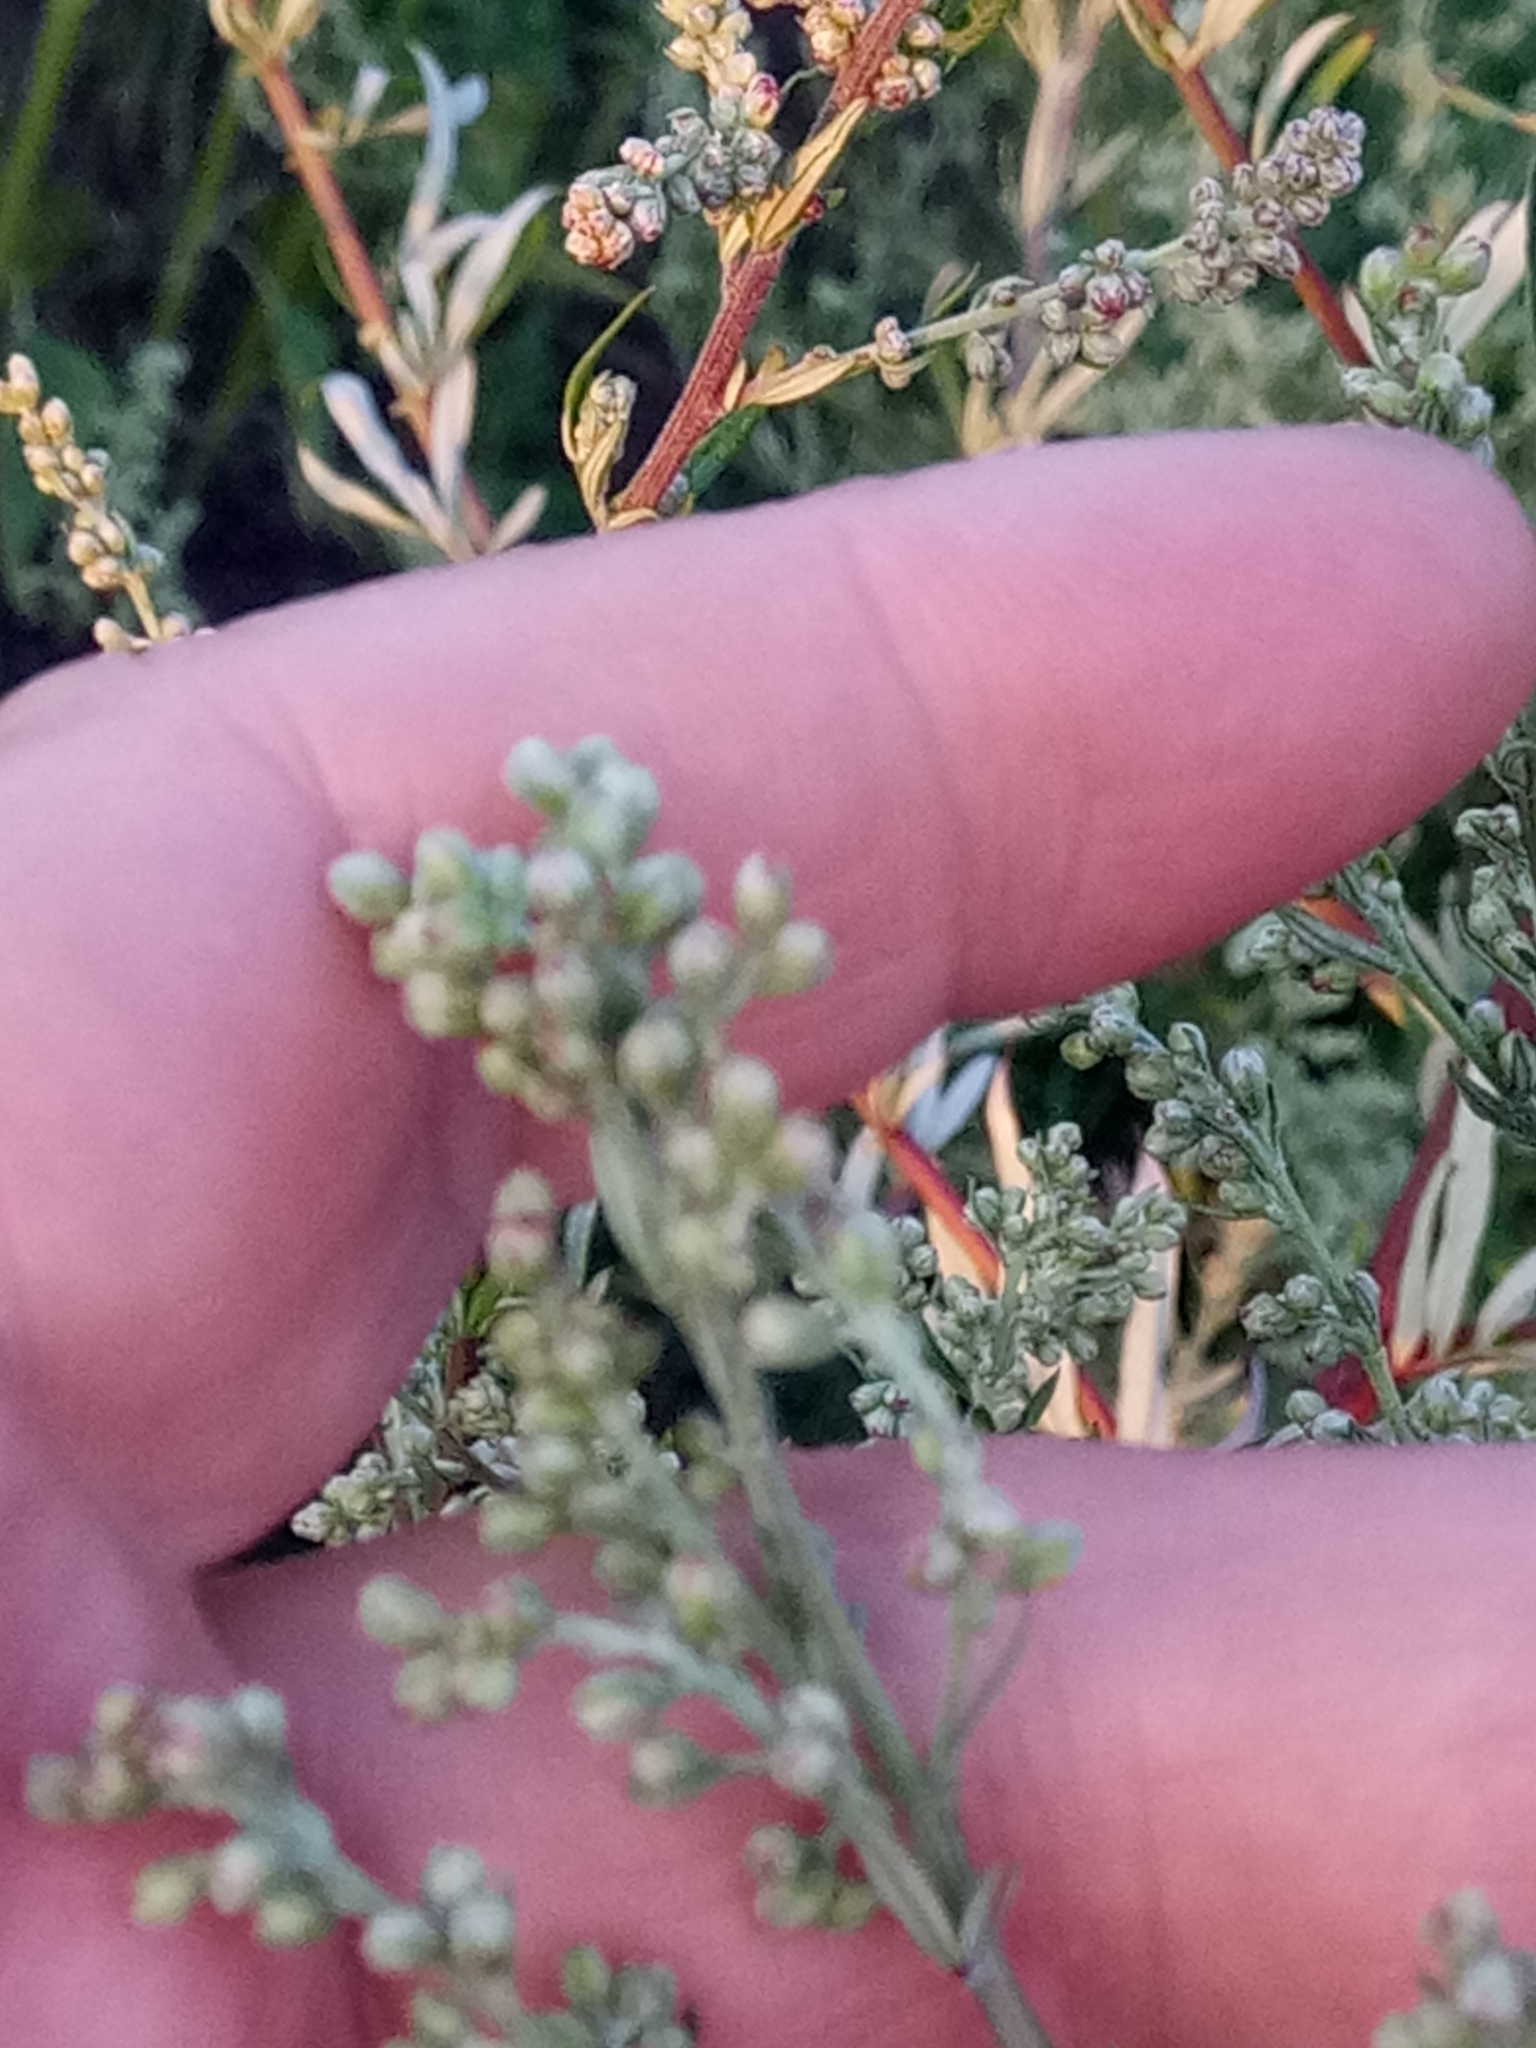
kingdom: Plantae
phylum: Tracheophyta
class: Magnoliopsida
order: Asterales
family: Asteraceae
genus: Artemisia
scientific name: Artemisia vulgaris
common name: Mugwort
